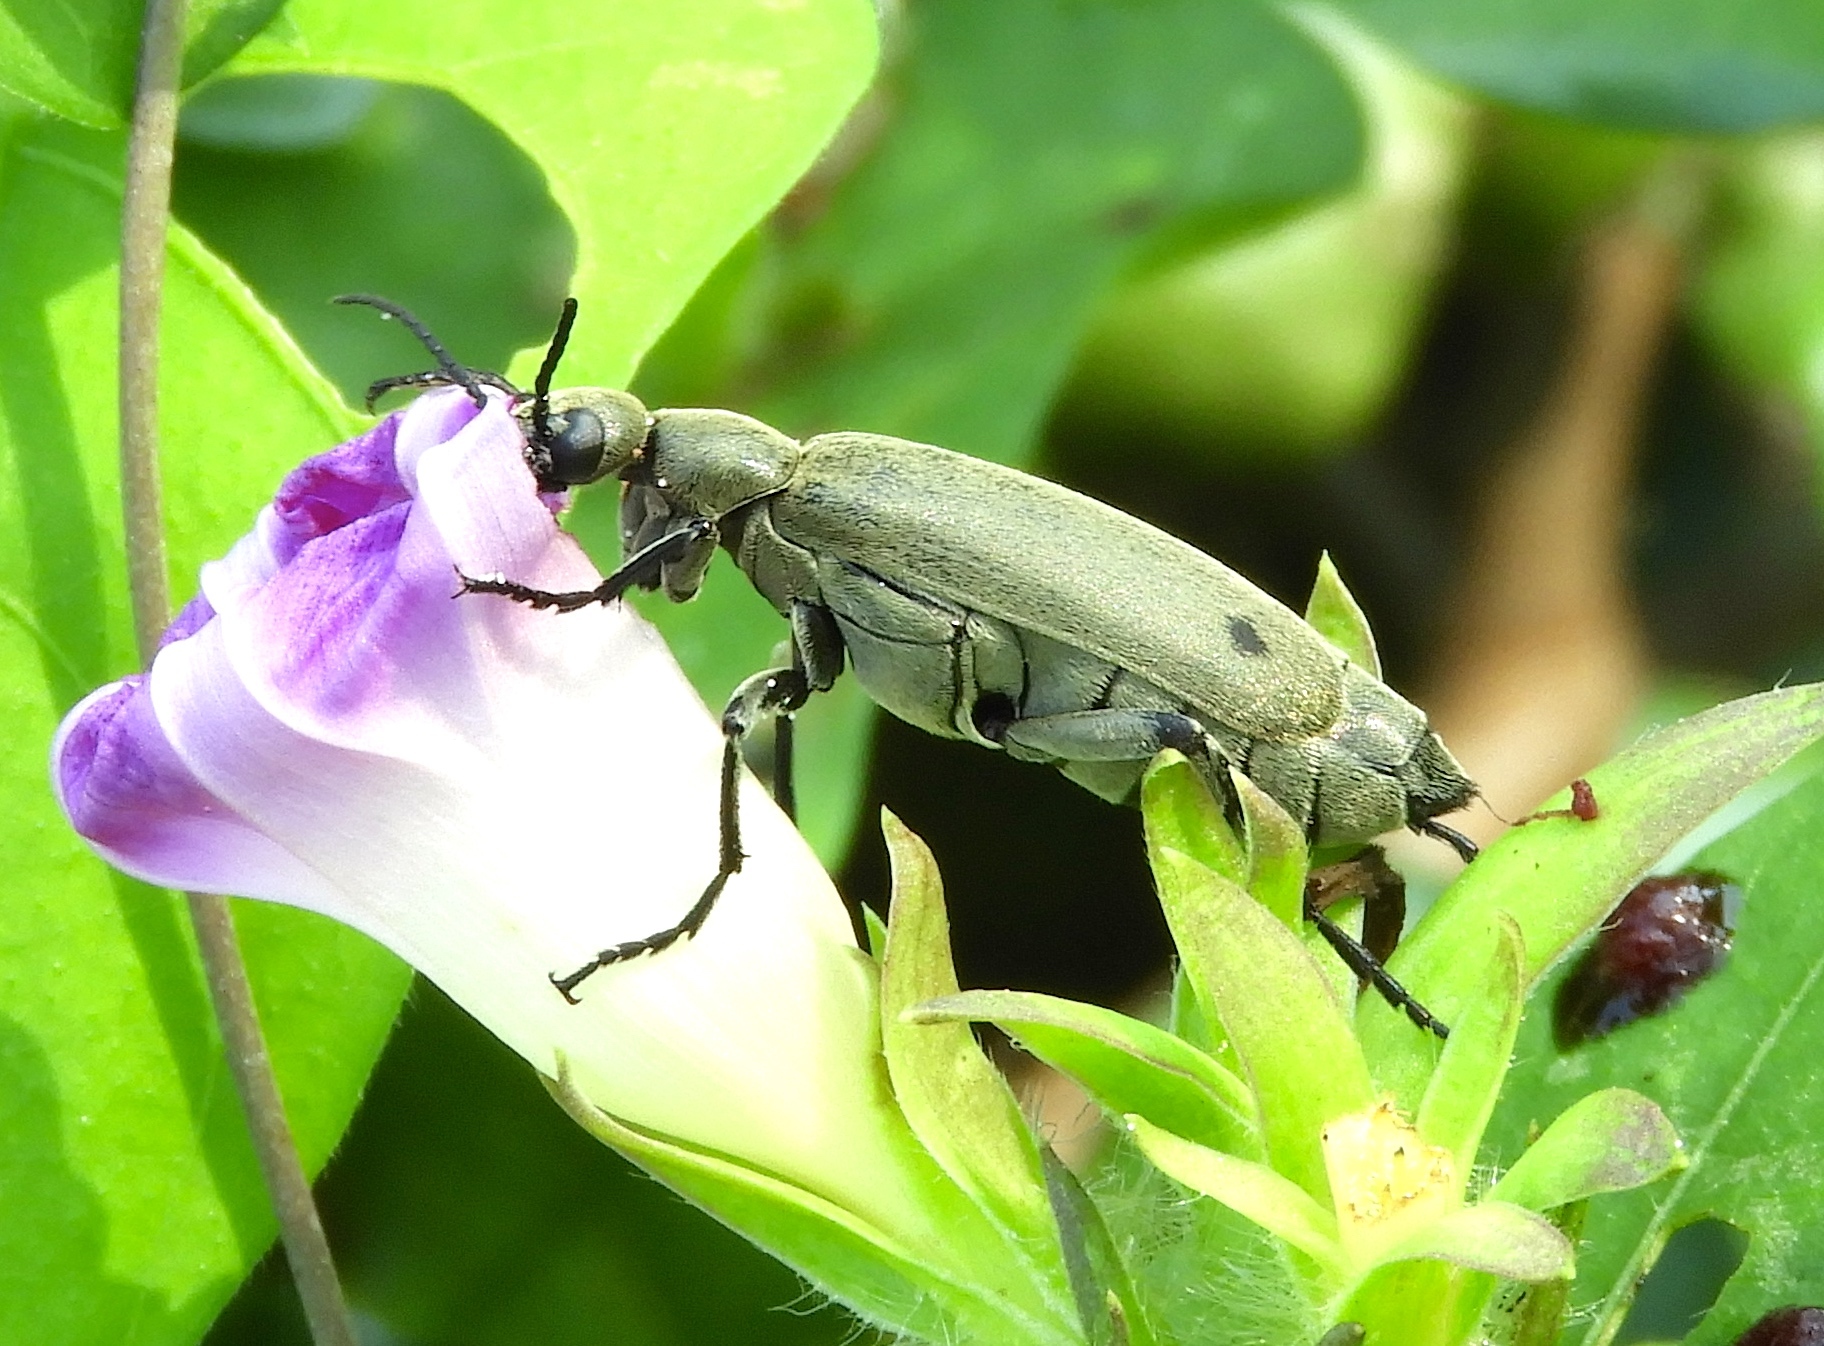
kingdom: Animalia
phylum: Arthropoda
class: Insecta
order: Coleoptera
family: Meloidae
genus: Epicauta
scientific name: Epicauta bipunctata
